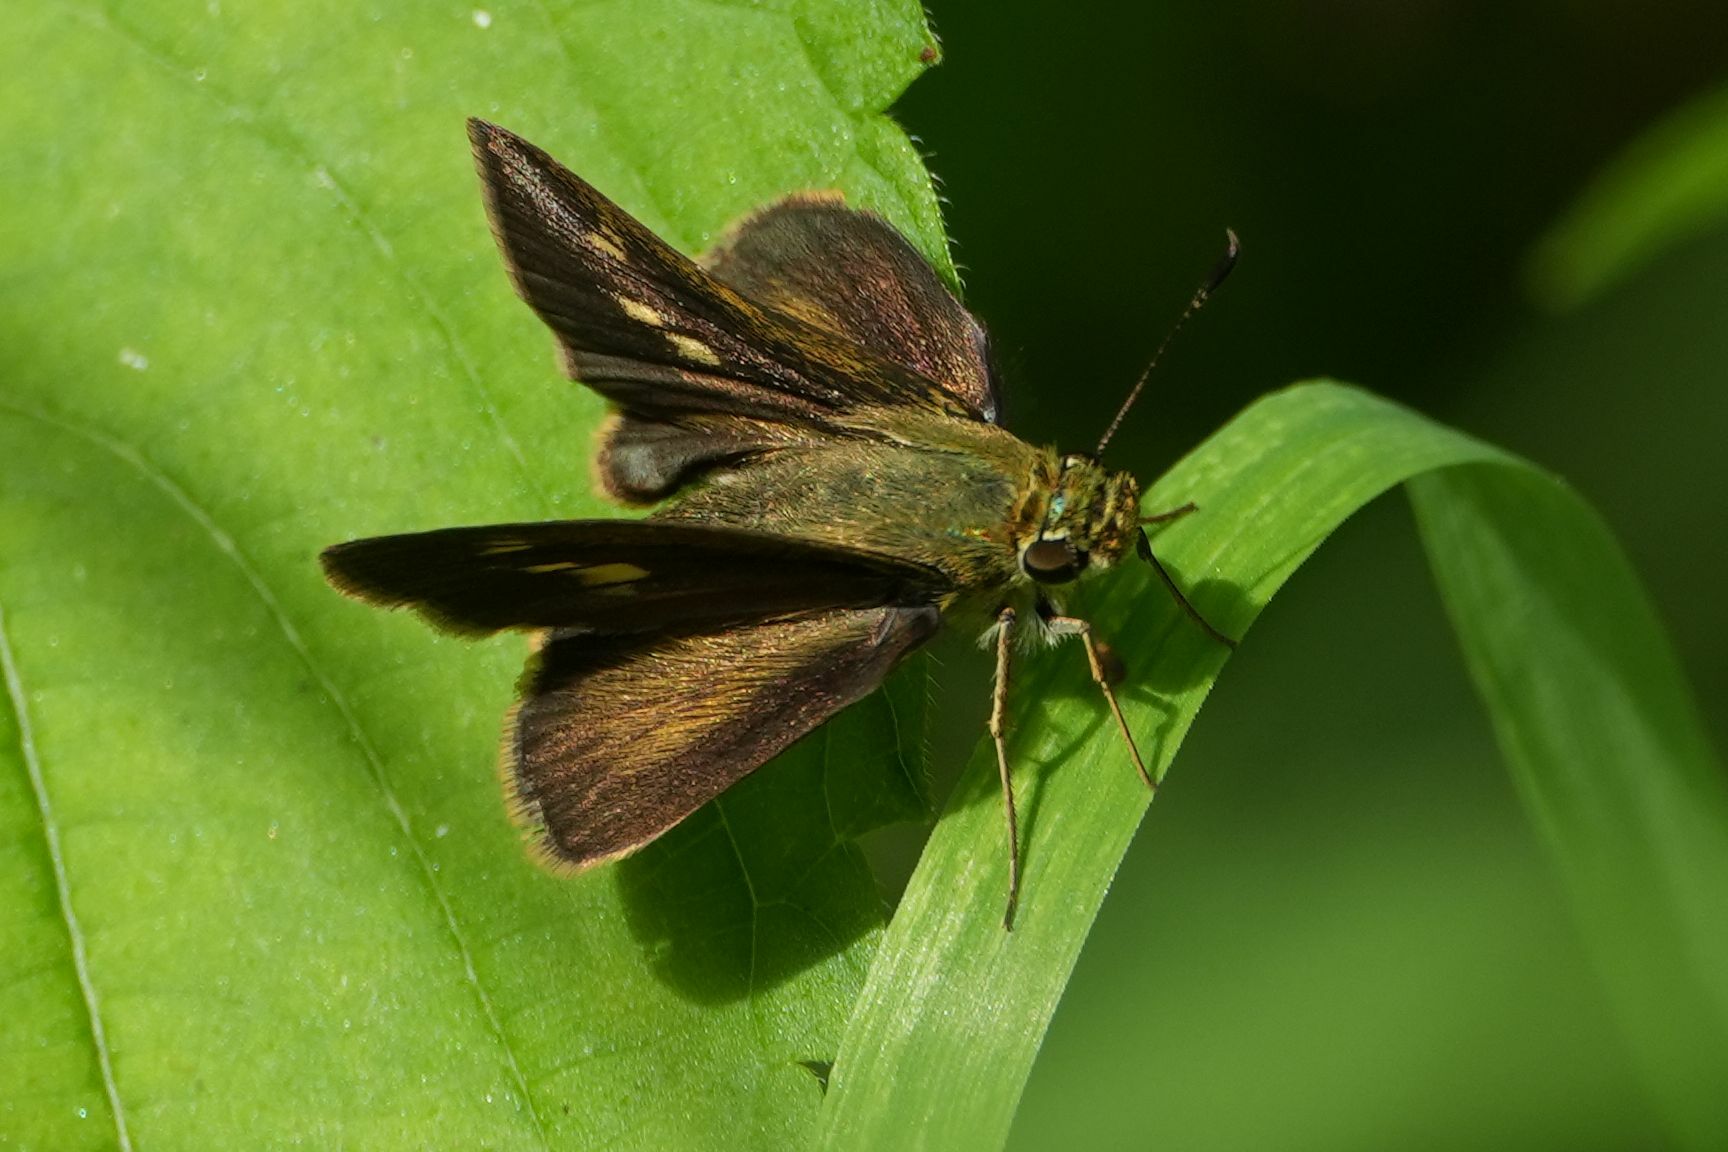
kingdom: Animalia
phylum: Arthropoda
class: Insecta
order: Lepidoptera
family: Hesperiidae
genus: Polites
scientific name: Polites egeremet
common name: Northern broken-dash
